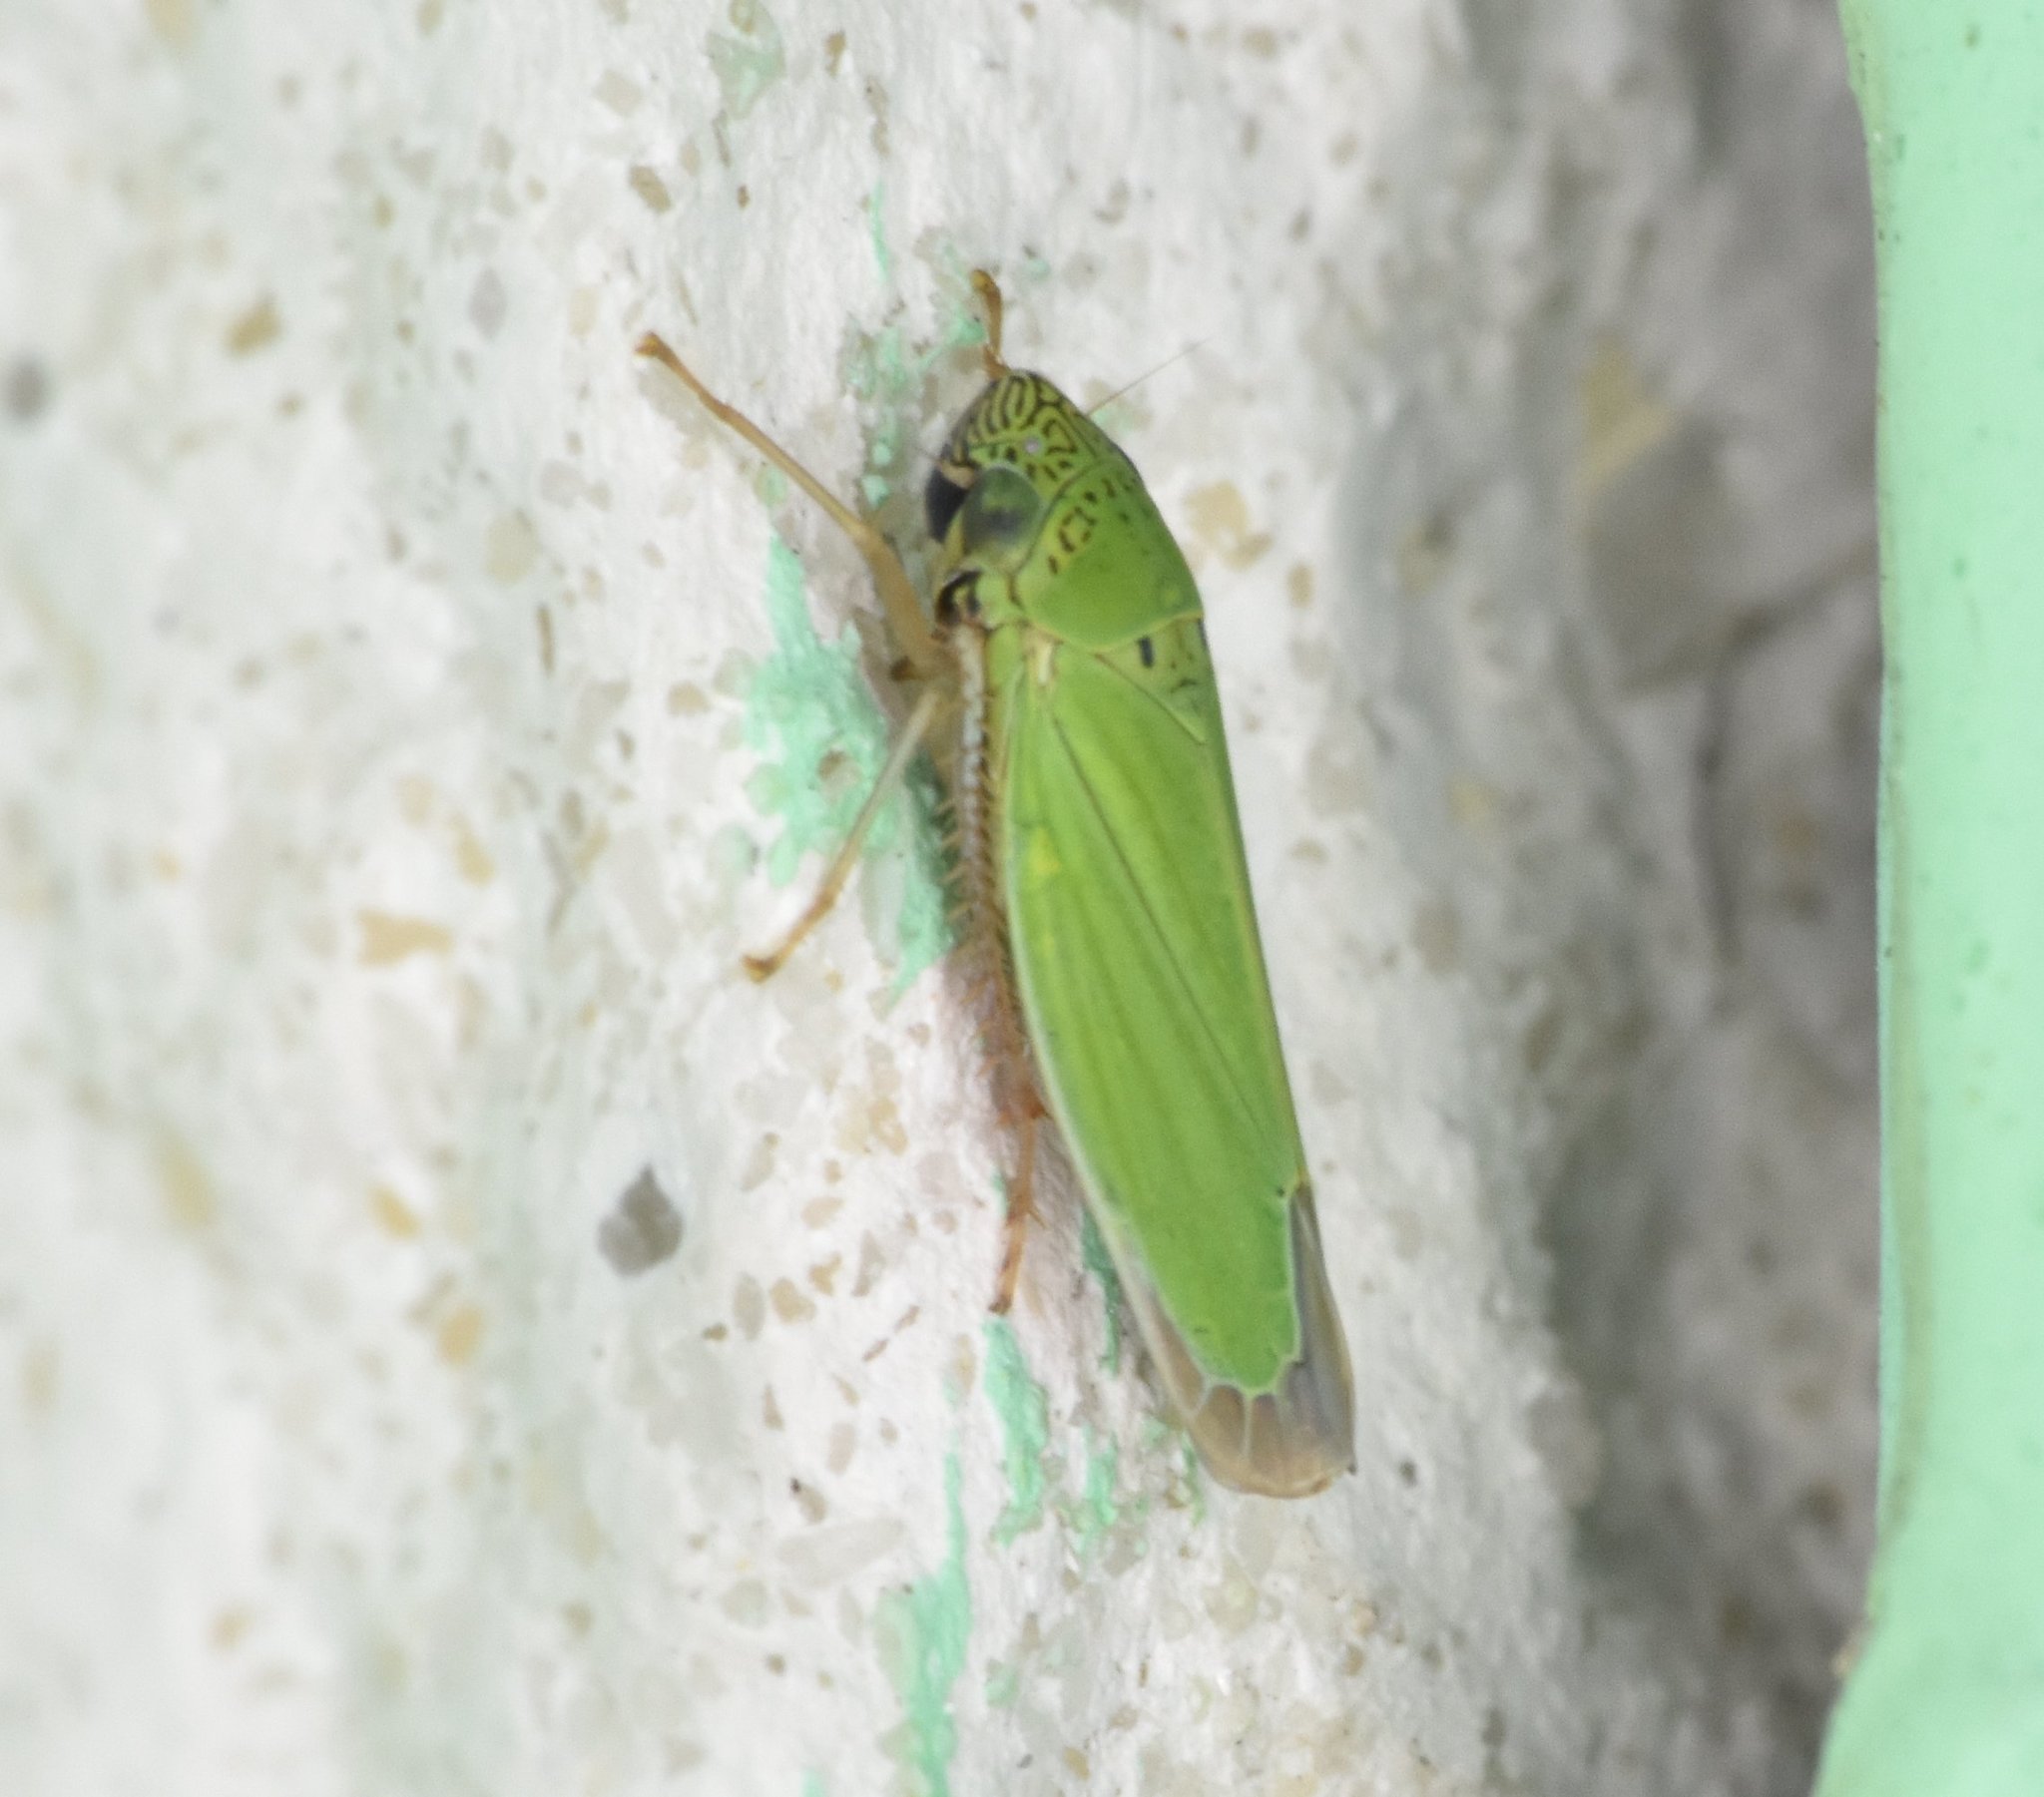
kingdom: Animalia
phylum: Arthropoda
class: Insecta
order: Hemiptera
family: Cicadellidae
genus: Hortensia
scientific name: Hortensia similis
